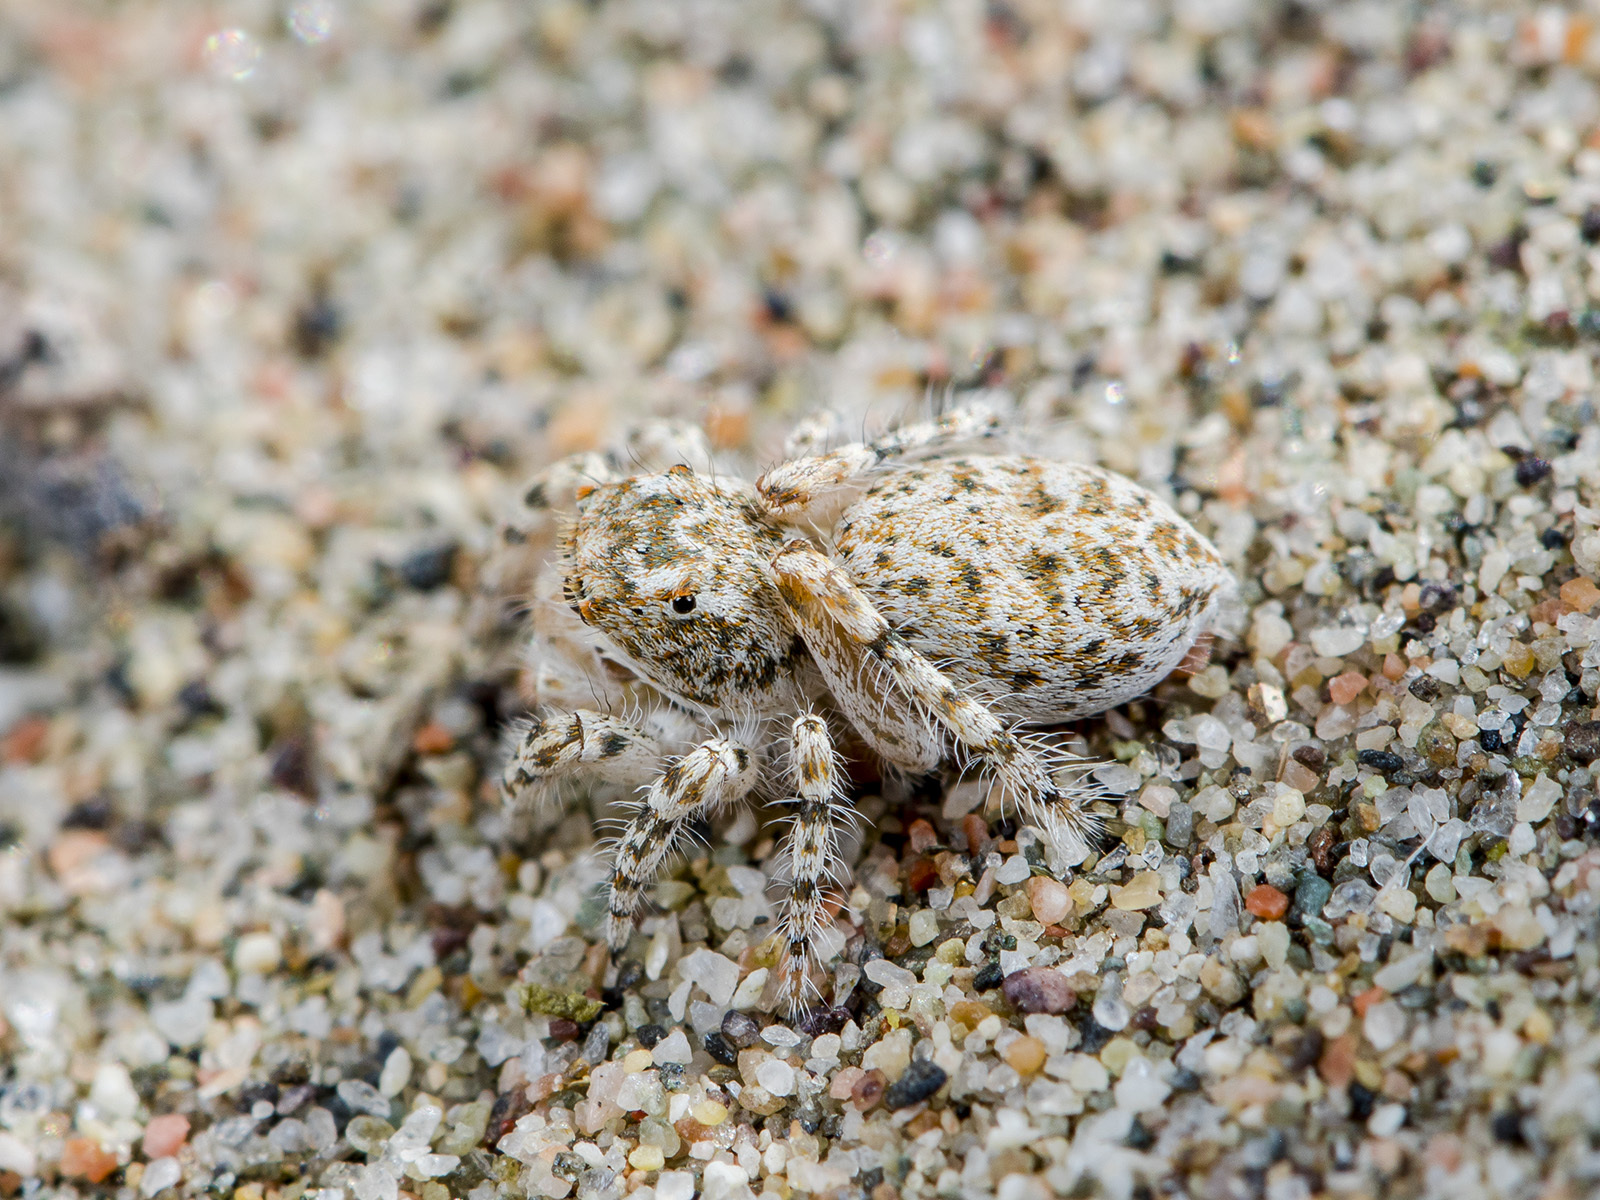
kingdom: Animalia
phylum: Arthropoda
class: Arachnida
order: Araneae
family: Salticidae
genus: Yllenus
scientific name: Yllenus turkestanicus
